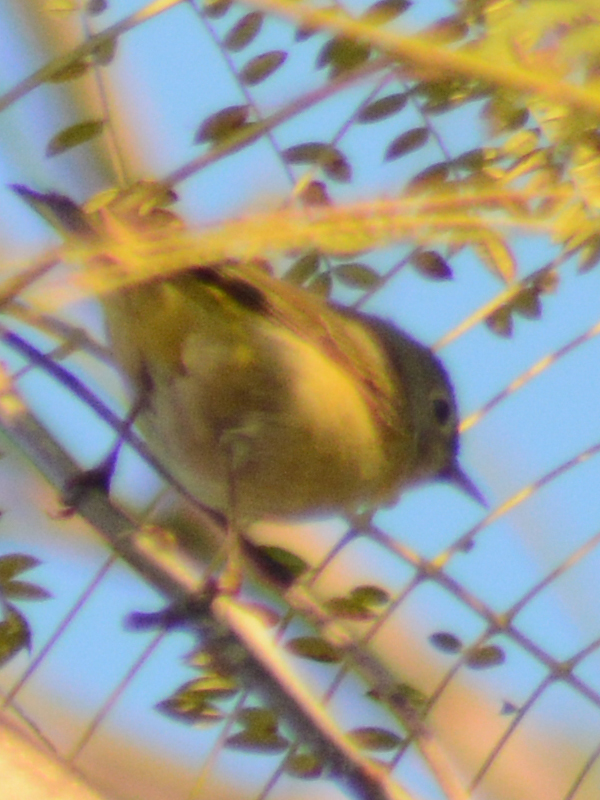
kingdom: Animalia
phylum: Chordata
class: Aves
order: Passeriformes
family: Parulidae
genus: Leiothlypis
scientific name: Leiothlypis ruficapilla
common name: Nashville warbler
